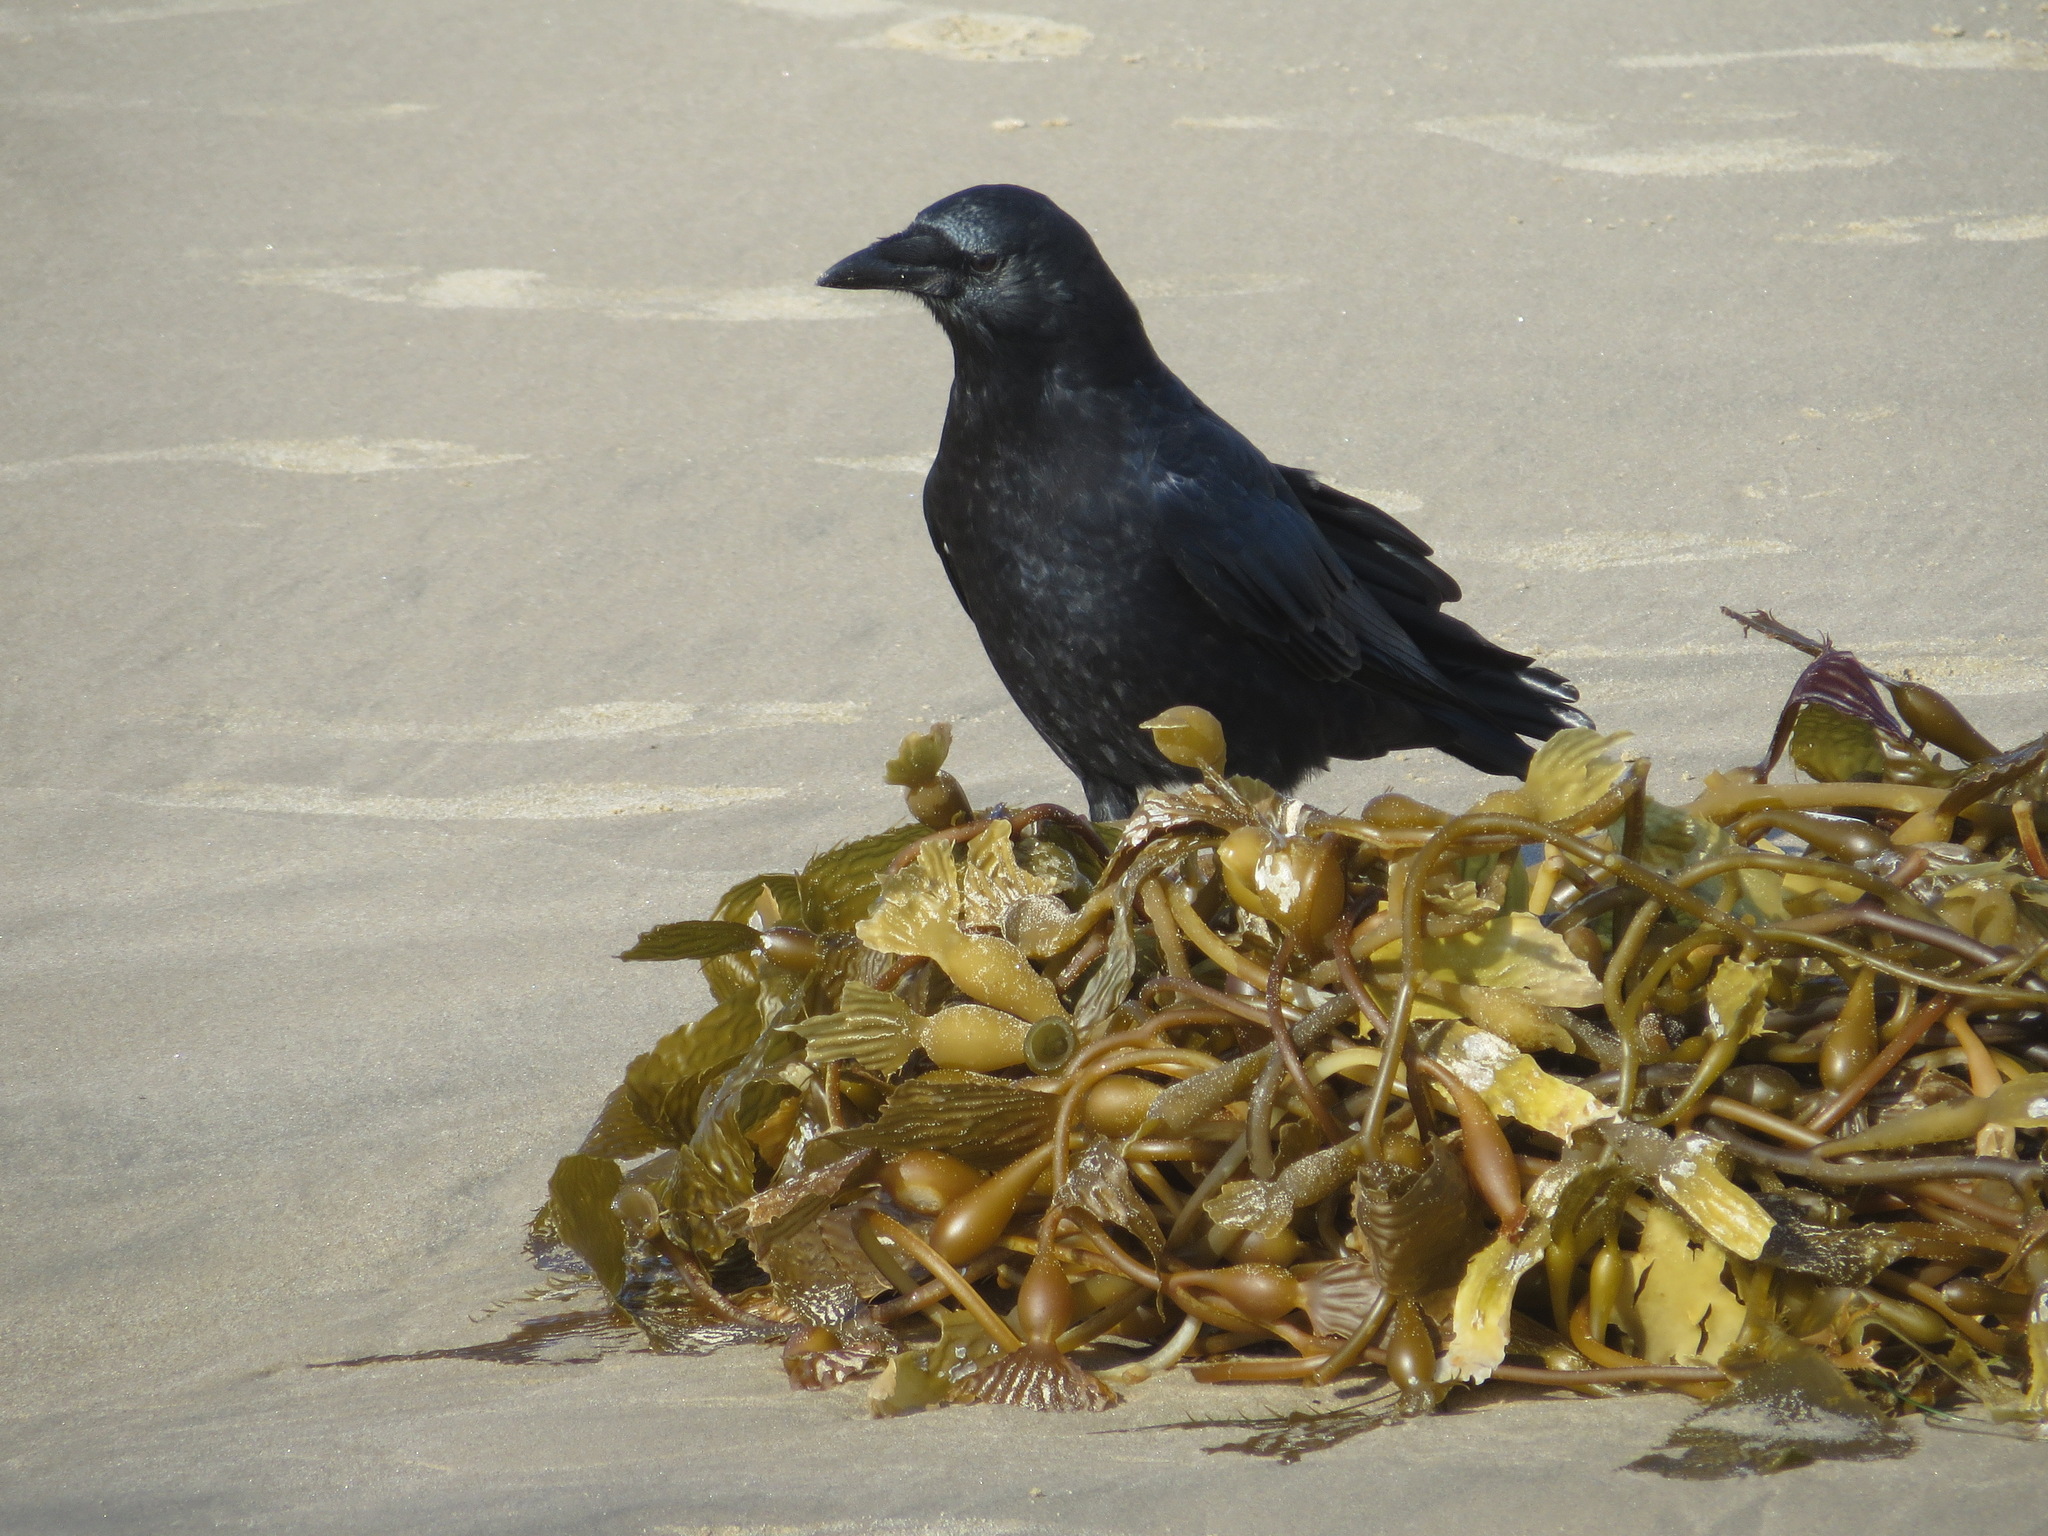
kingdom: Animalia
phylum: Chordata
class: Aves
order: Passeriformes
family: Corvidae
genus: Corvus
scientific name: Corvus brachyrhynchos
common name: American crow
